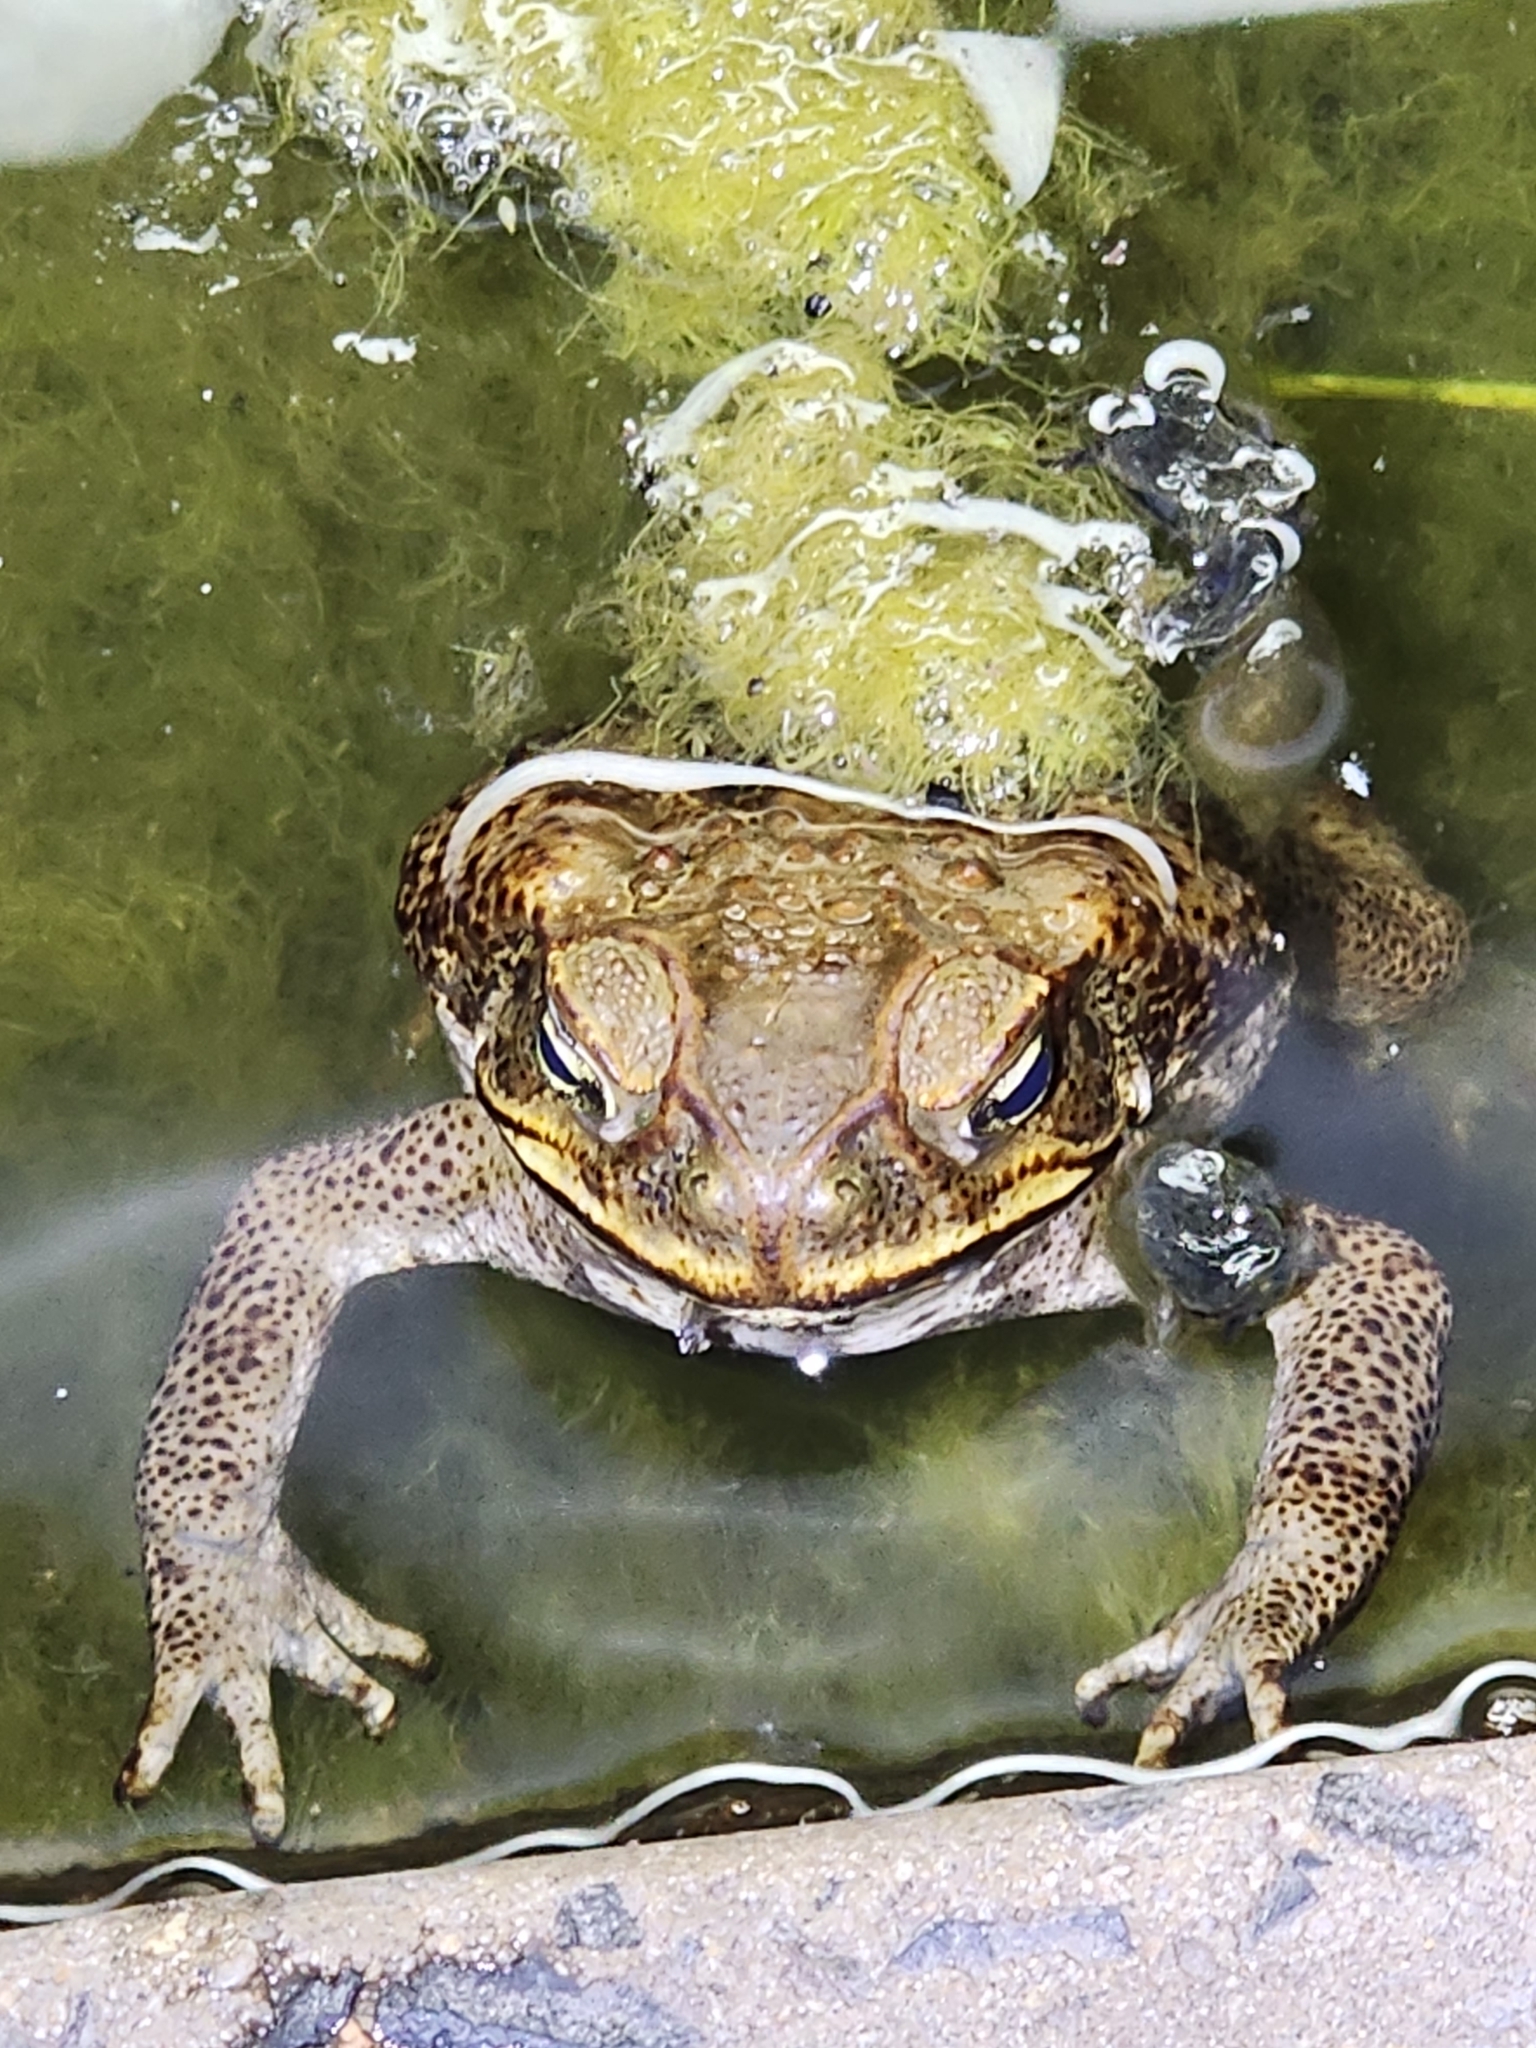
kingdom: Animalia
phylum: Chordata
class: Amphibia
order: Anura
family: Bufonidae
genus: Rhinella
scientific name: Rhinella marina
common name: Cane toad
